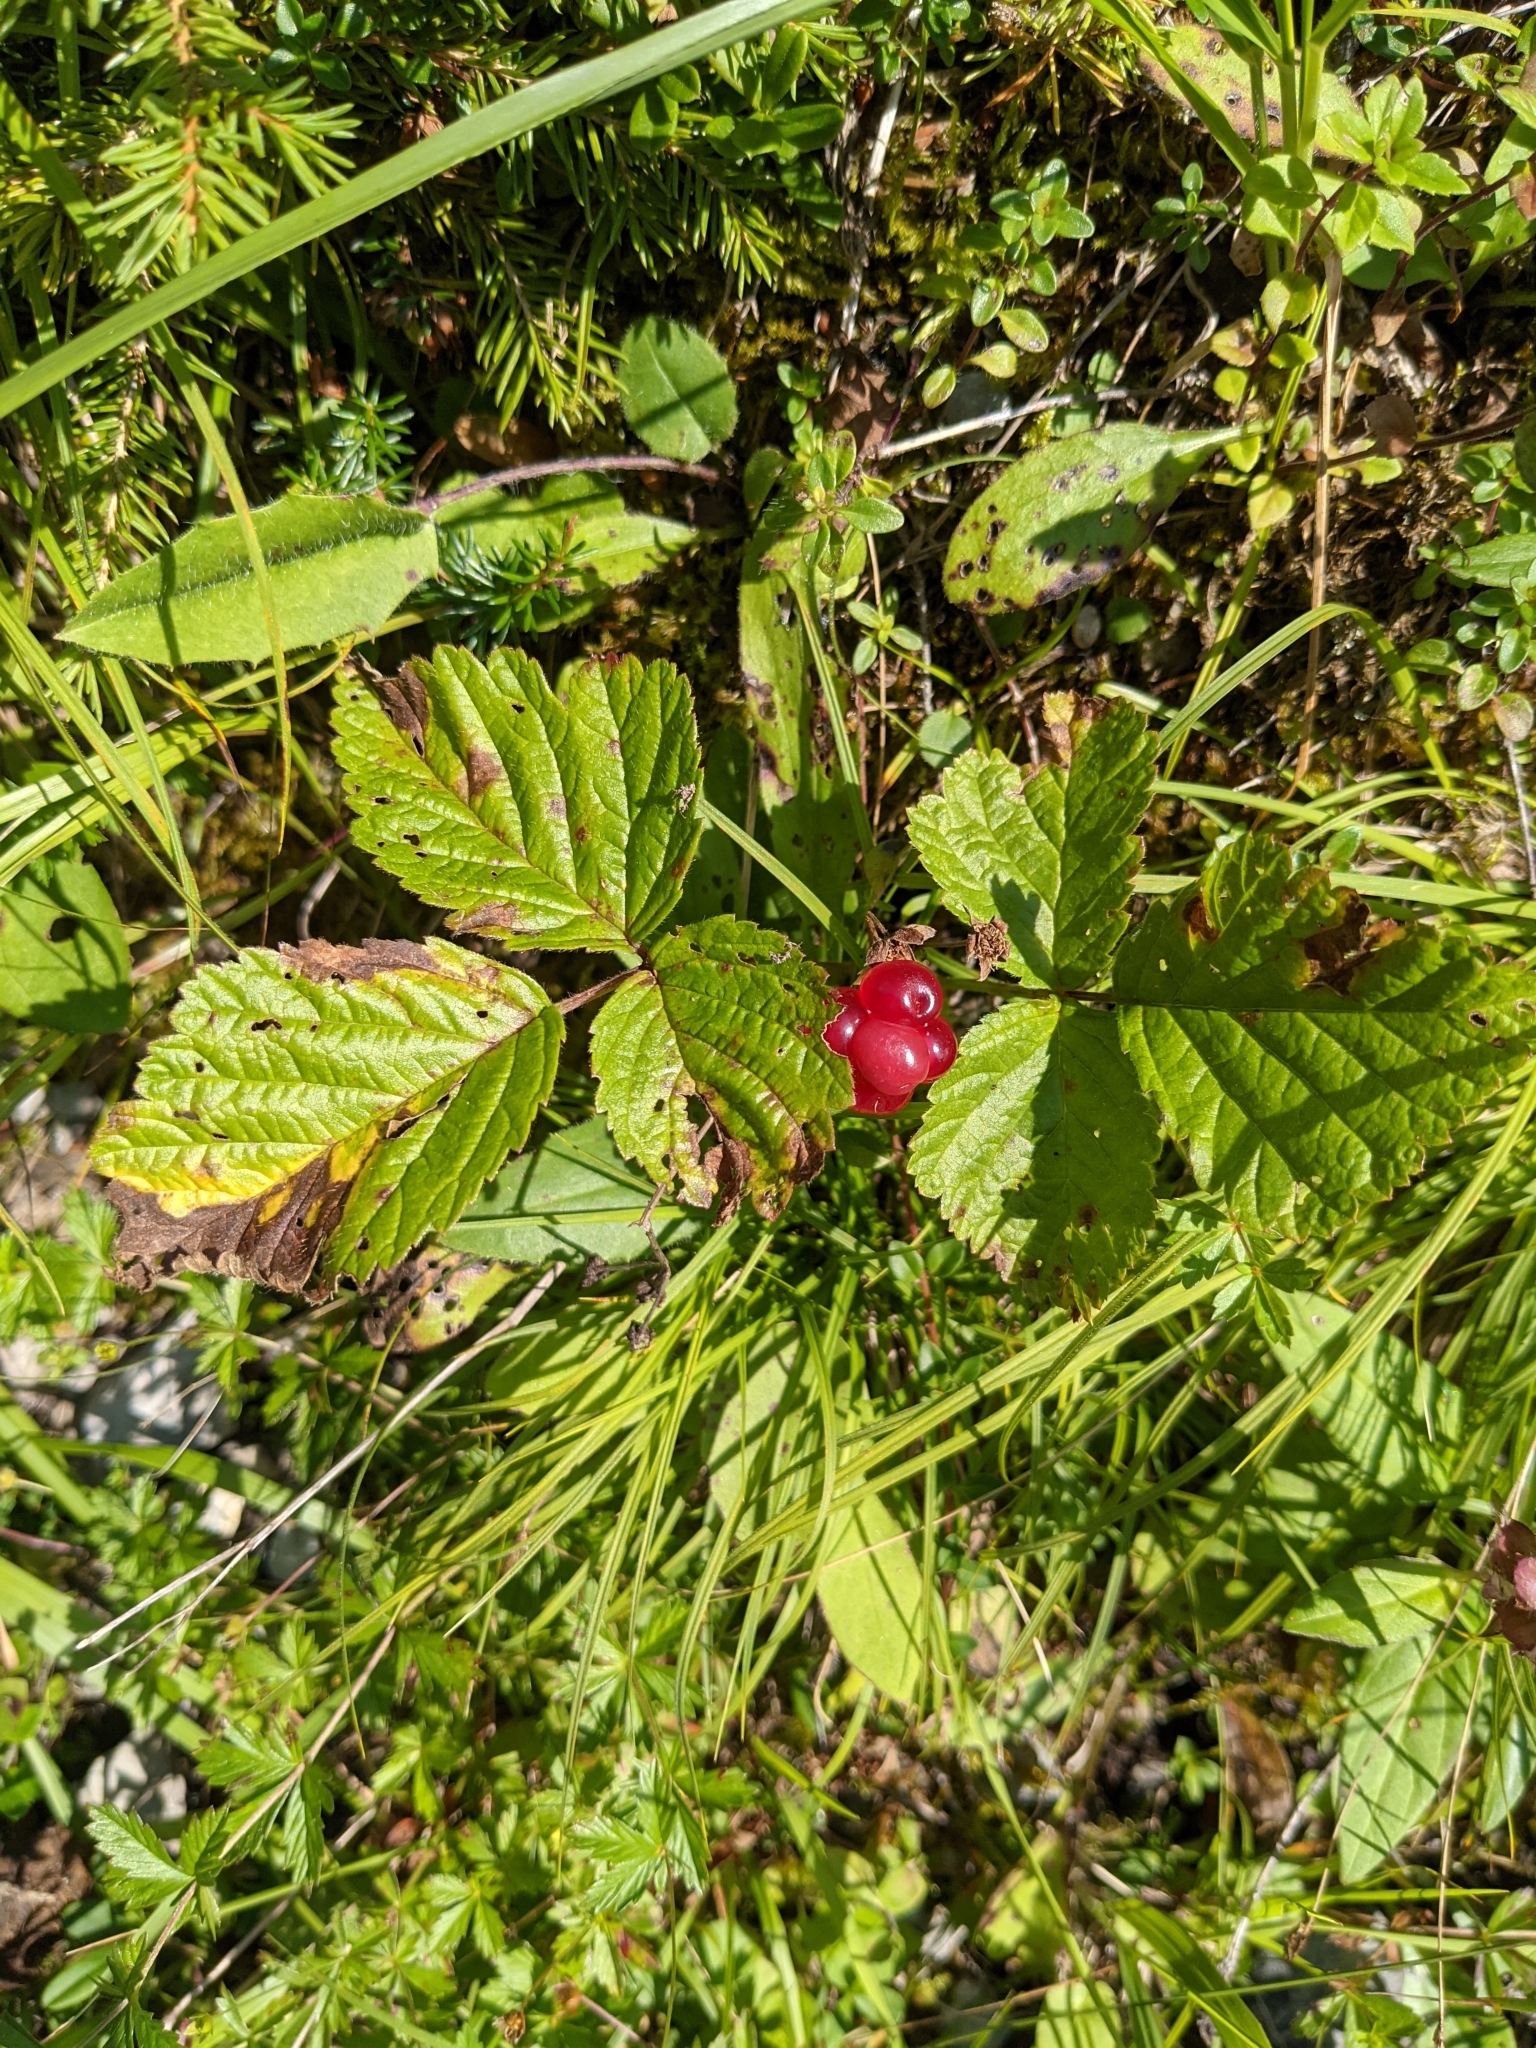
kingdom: Plantae
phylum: Tracheophyta
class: Magnoliopsida
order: Rosales
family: Rosaceae
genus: Rubus
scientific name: Rubus saxatilis
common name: Stone bramble
